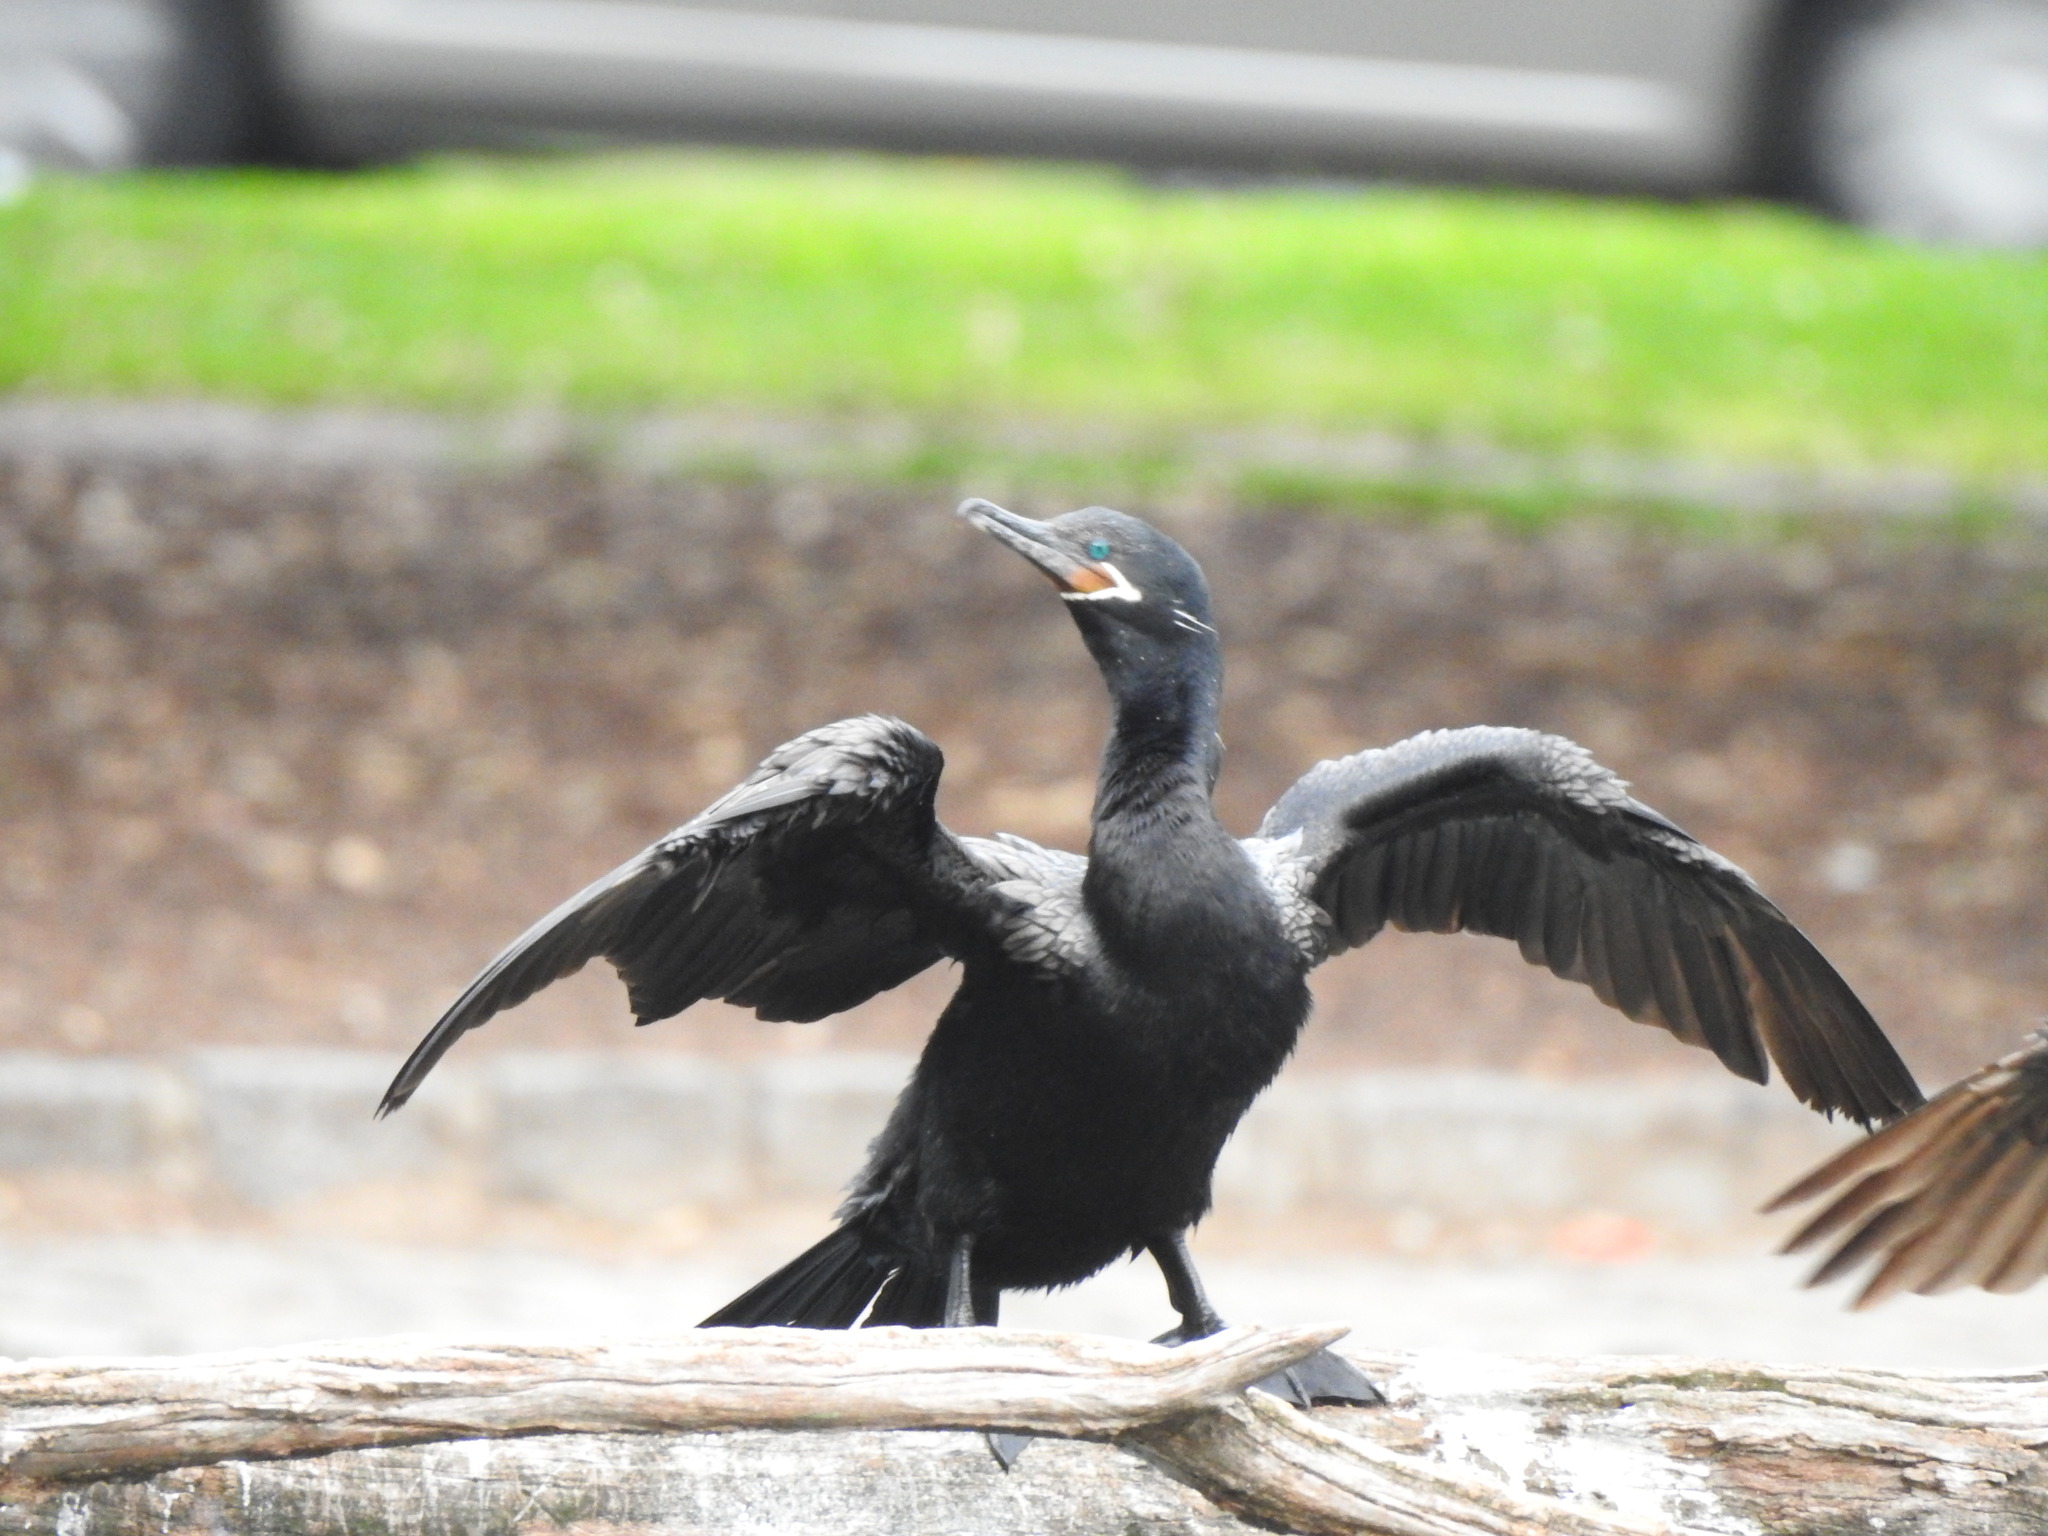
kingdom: Animalia
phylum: Chordata
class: Aves
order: Suliformes
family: Phalacrocoracidae
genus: Phalacrocorax
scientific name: Phalacrocorax brasilianus
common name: Neotropic cormorant
